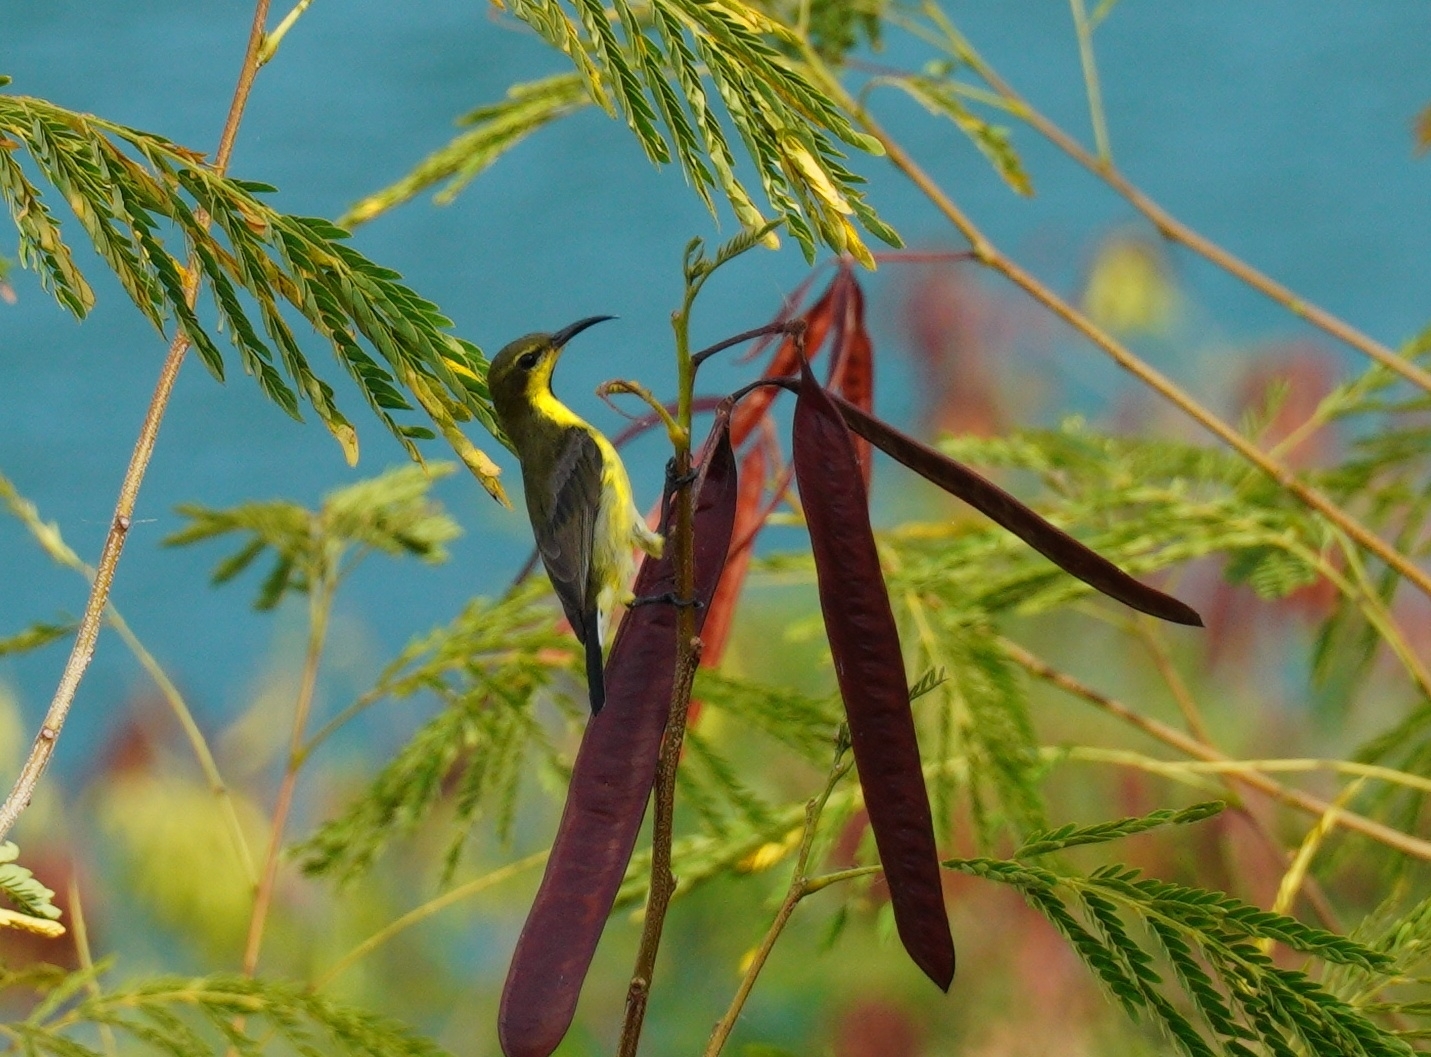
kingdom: Animalia
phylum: Chordata
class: Aves
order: Passeriformes
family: Nectariniidae
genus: Cinnyris
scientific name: Cinnyris
